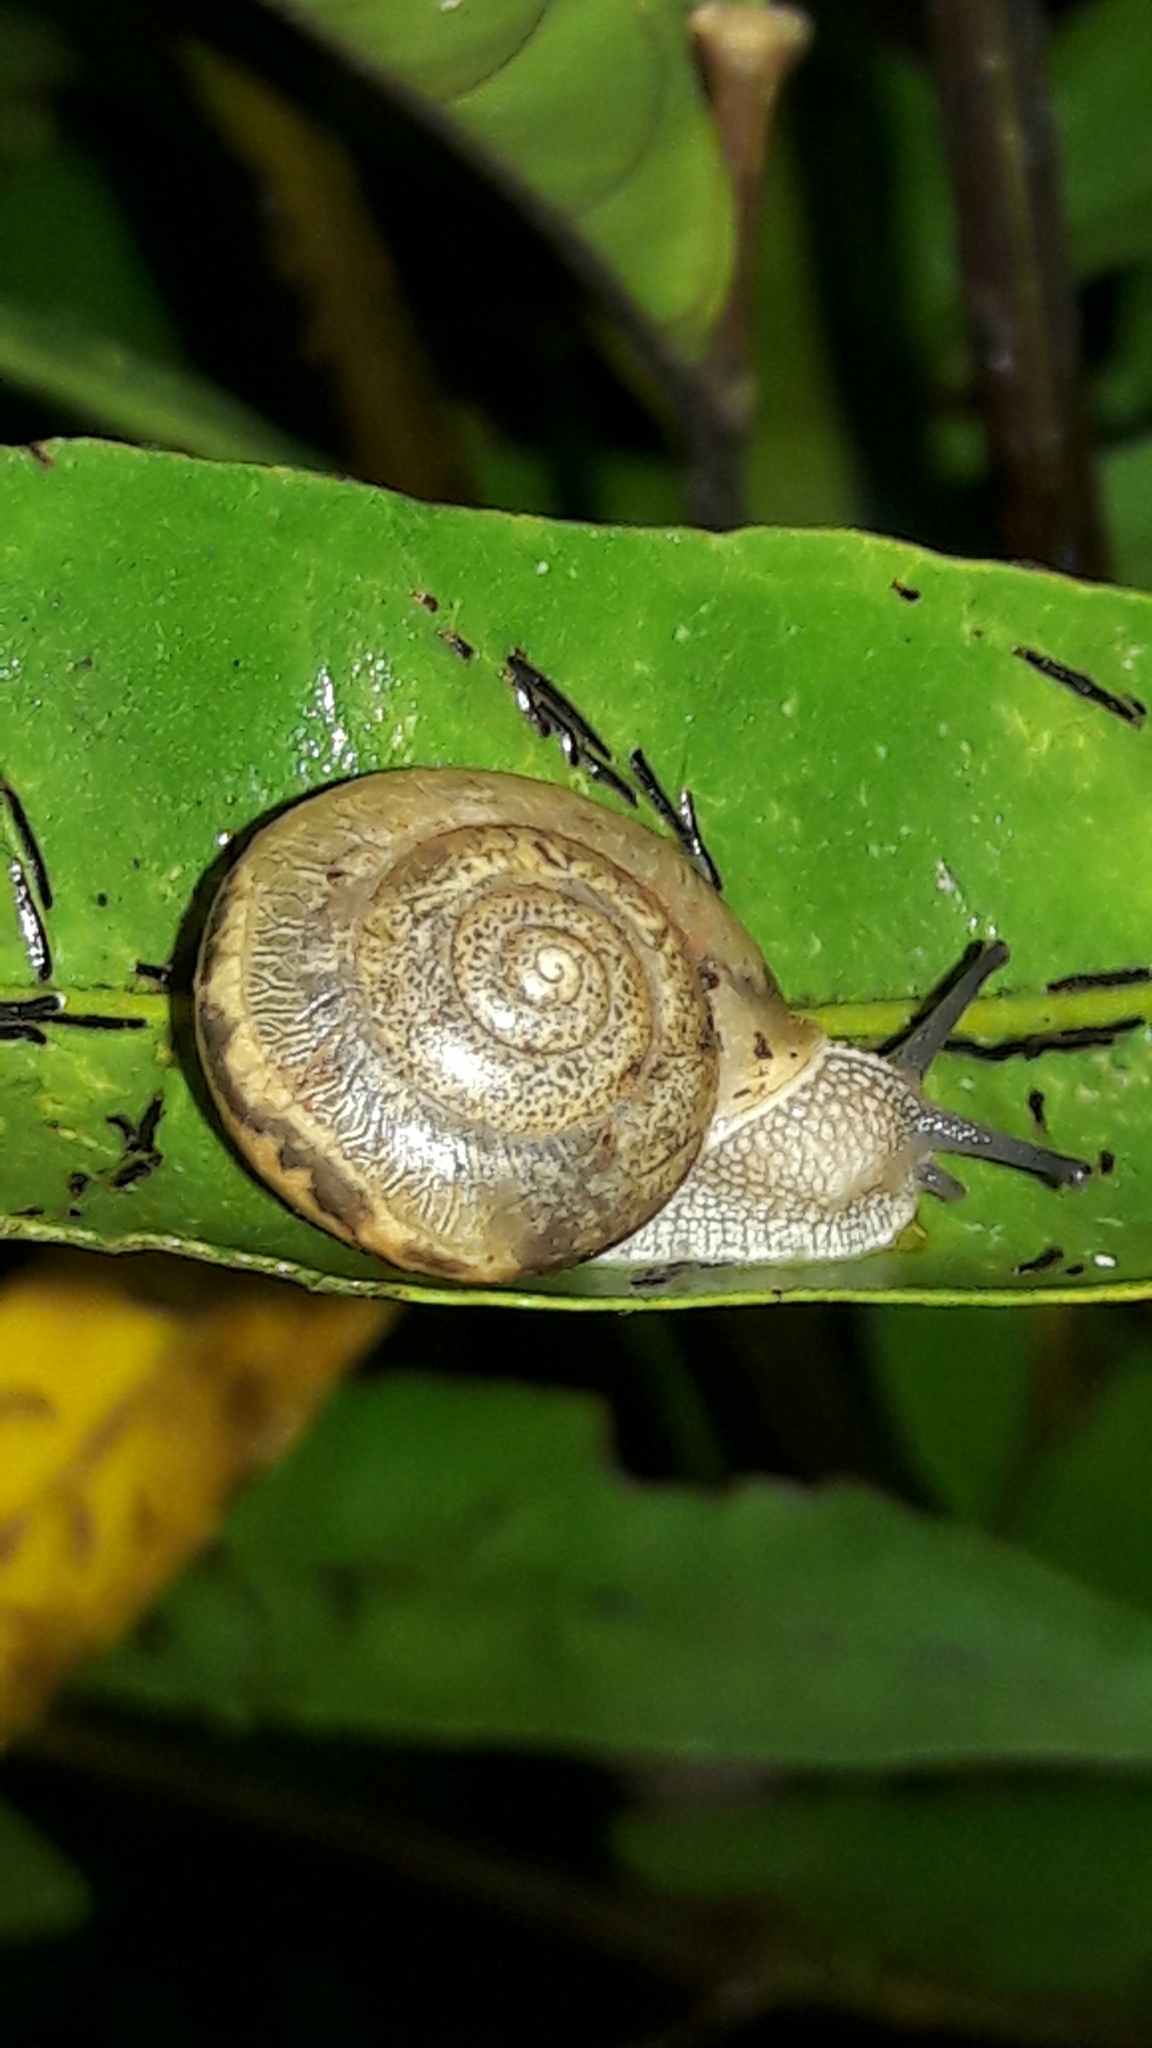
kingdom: Animalia
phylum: Mollusca
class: Gastropoda
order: Stylommatophora
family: Camaenidae
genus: Bradybaena
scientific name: Bradybaena similaris
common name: Asian trampsnail
